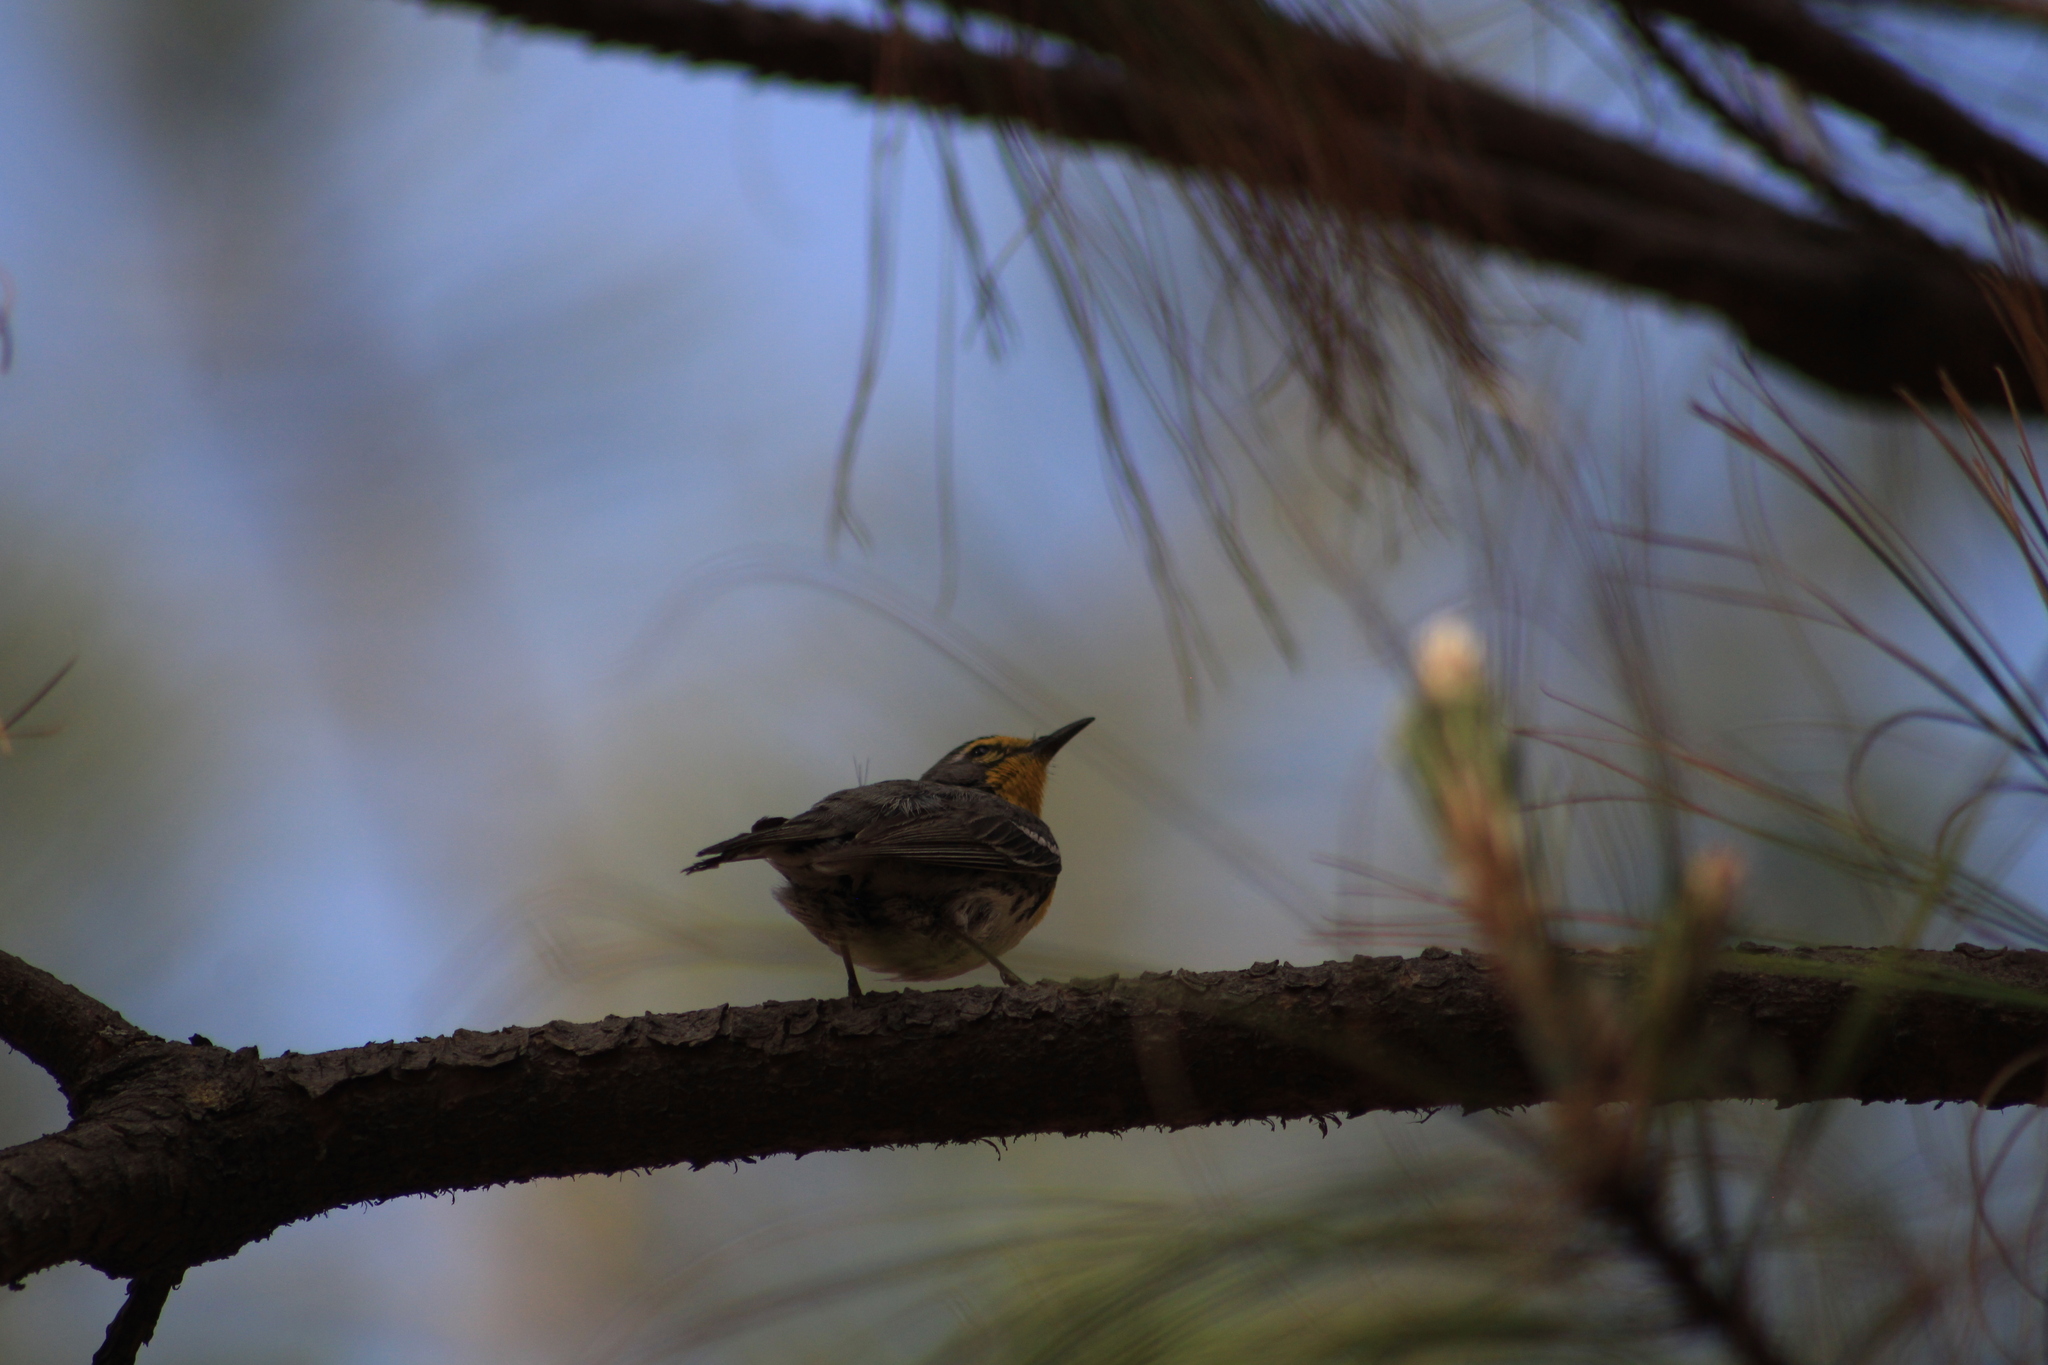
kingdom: Animalia
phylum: Chordata
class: Aves
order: Passeriformes
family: Parulidae
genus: Setophaga
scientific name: Setophaga graciae
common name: Grace's warbler
